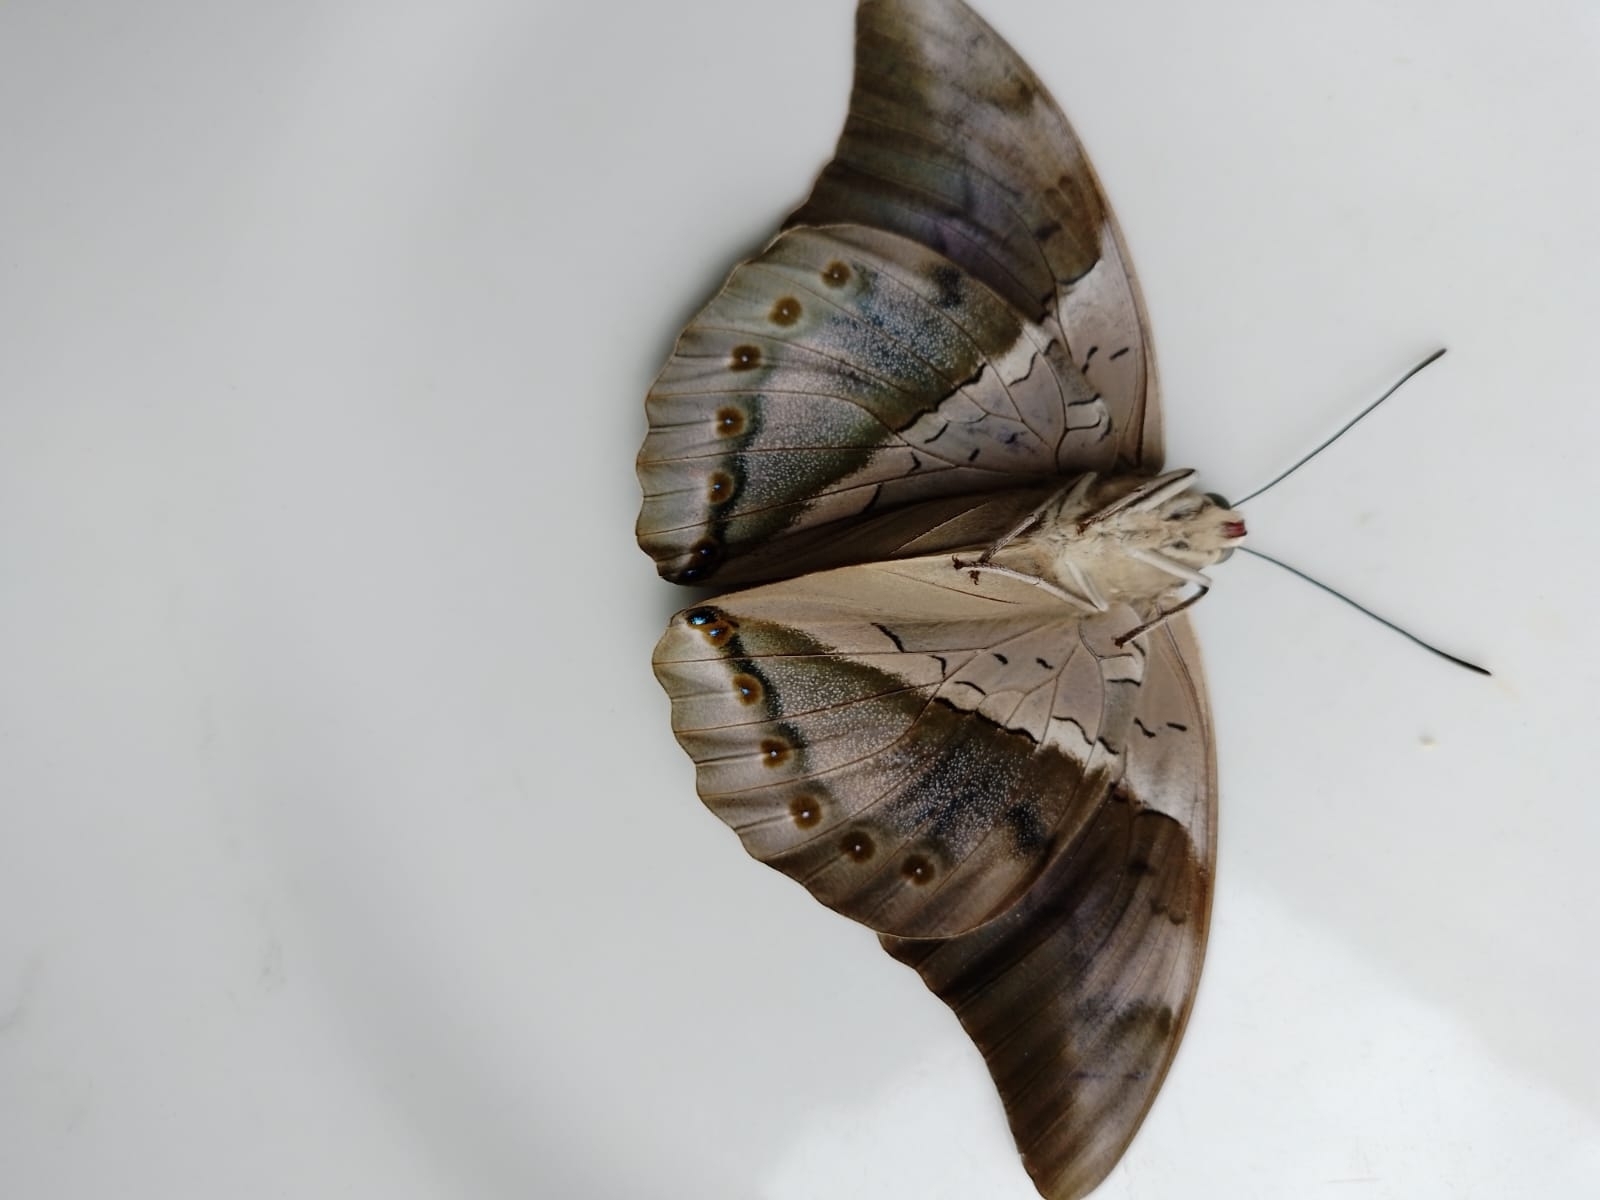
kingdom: Animalia
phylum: Arthropoda
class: Insecta
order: Lepidoptera
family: Nymphalidae
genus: Prepona
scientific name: Prepona
